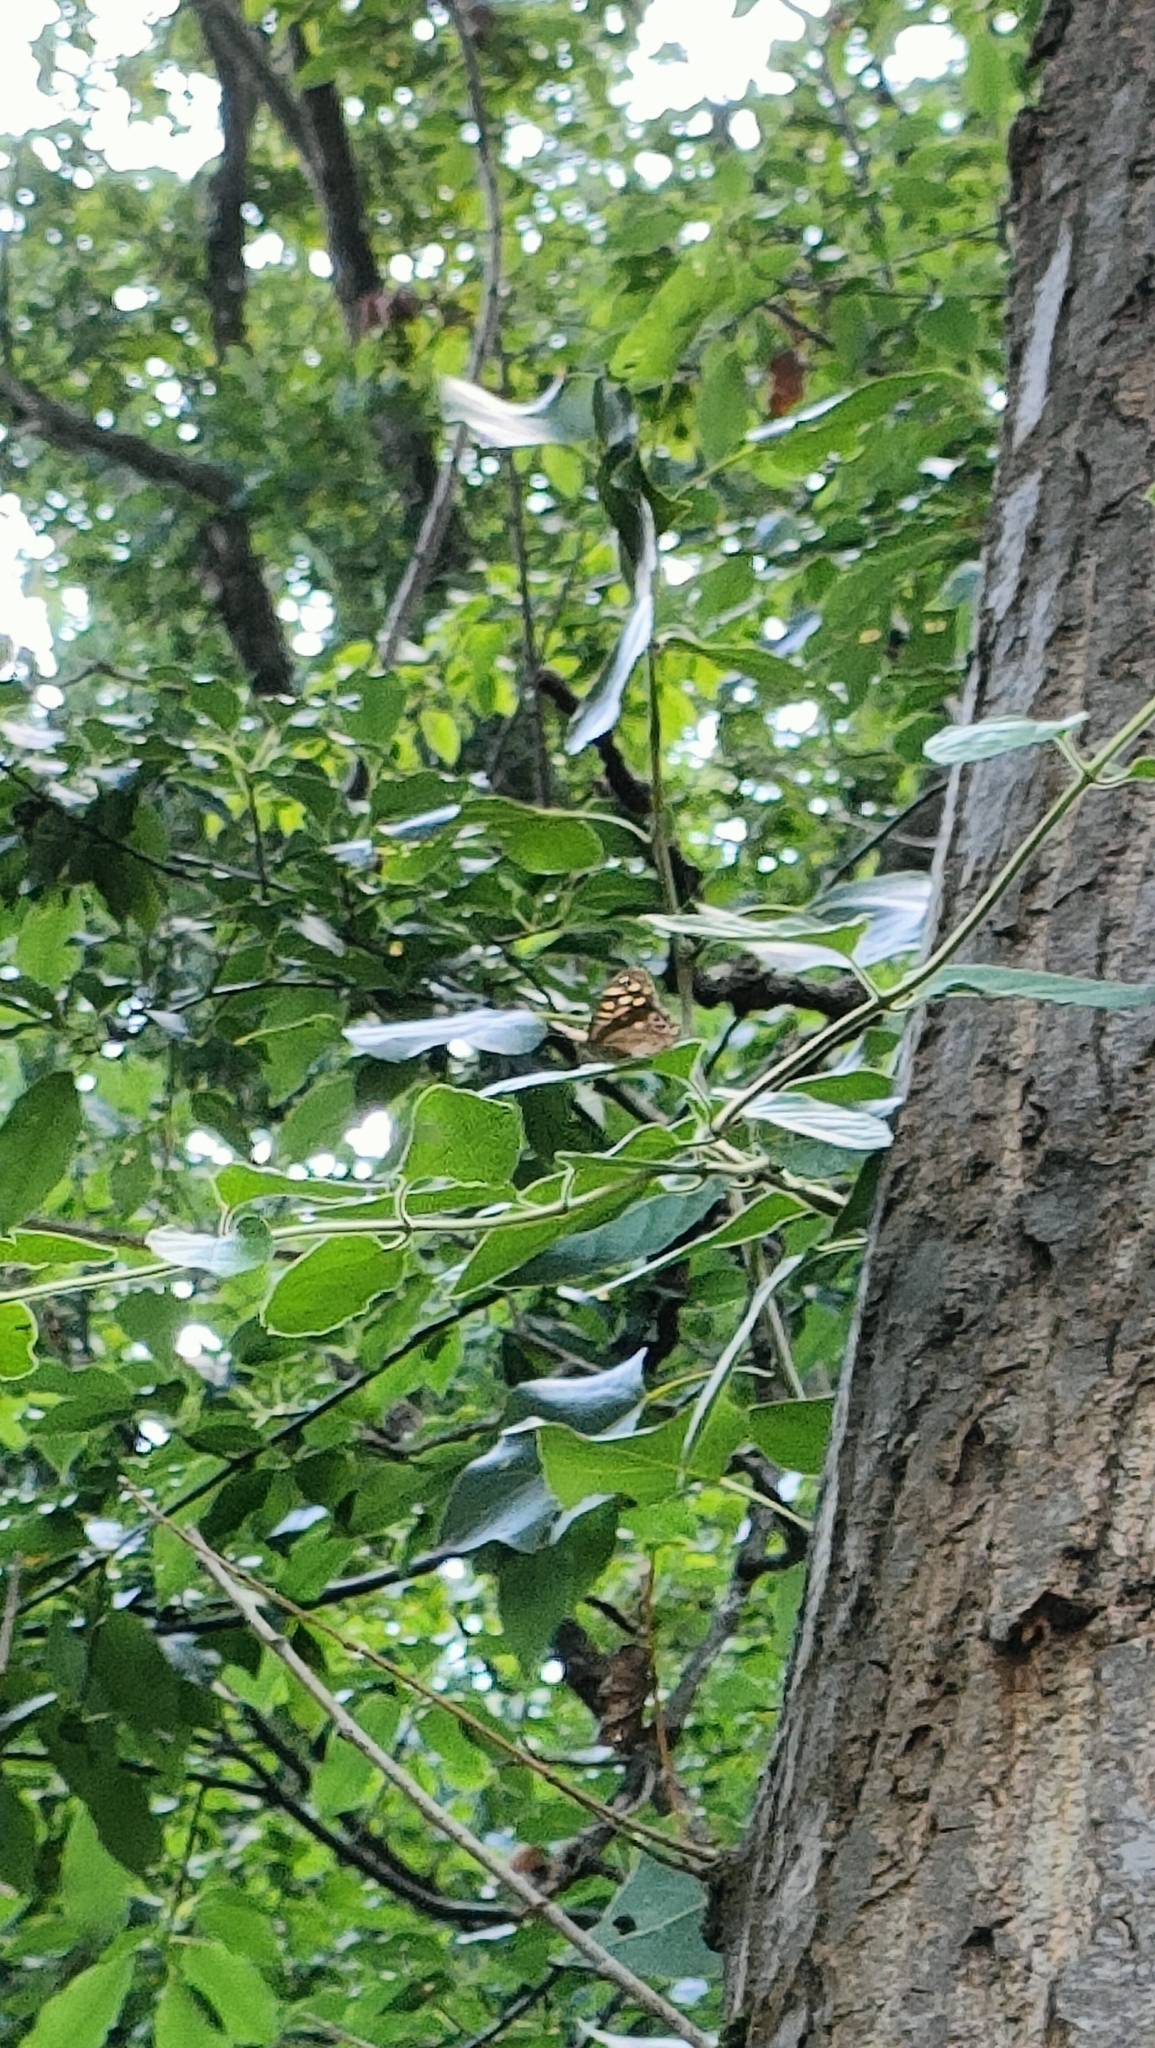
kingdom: Animalia
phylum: Arthropoda
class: Insecta
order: Lepidoptera
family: Nymphalidae
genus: Pararge
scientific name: Pararge aegeria
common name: Speckled wood
